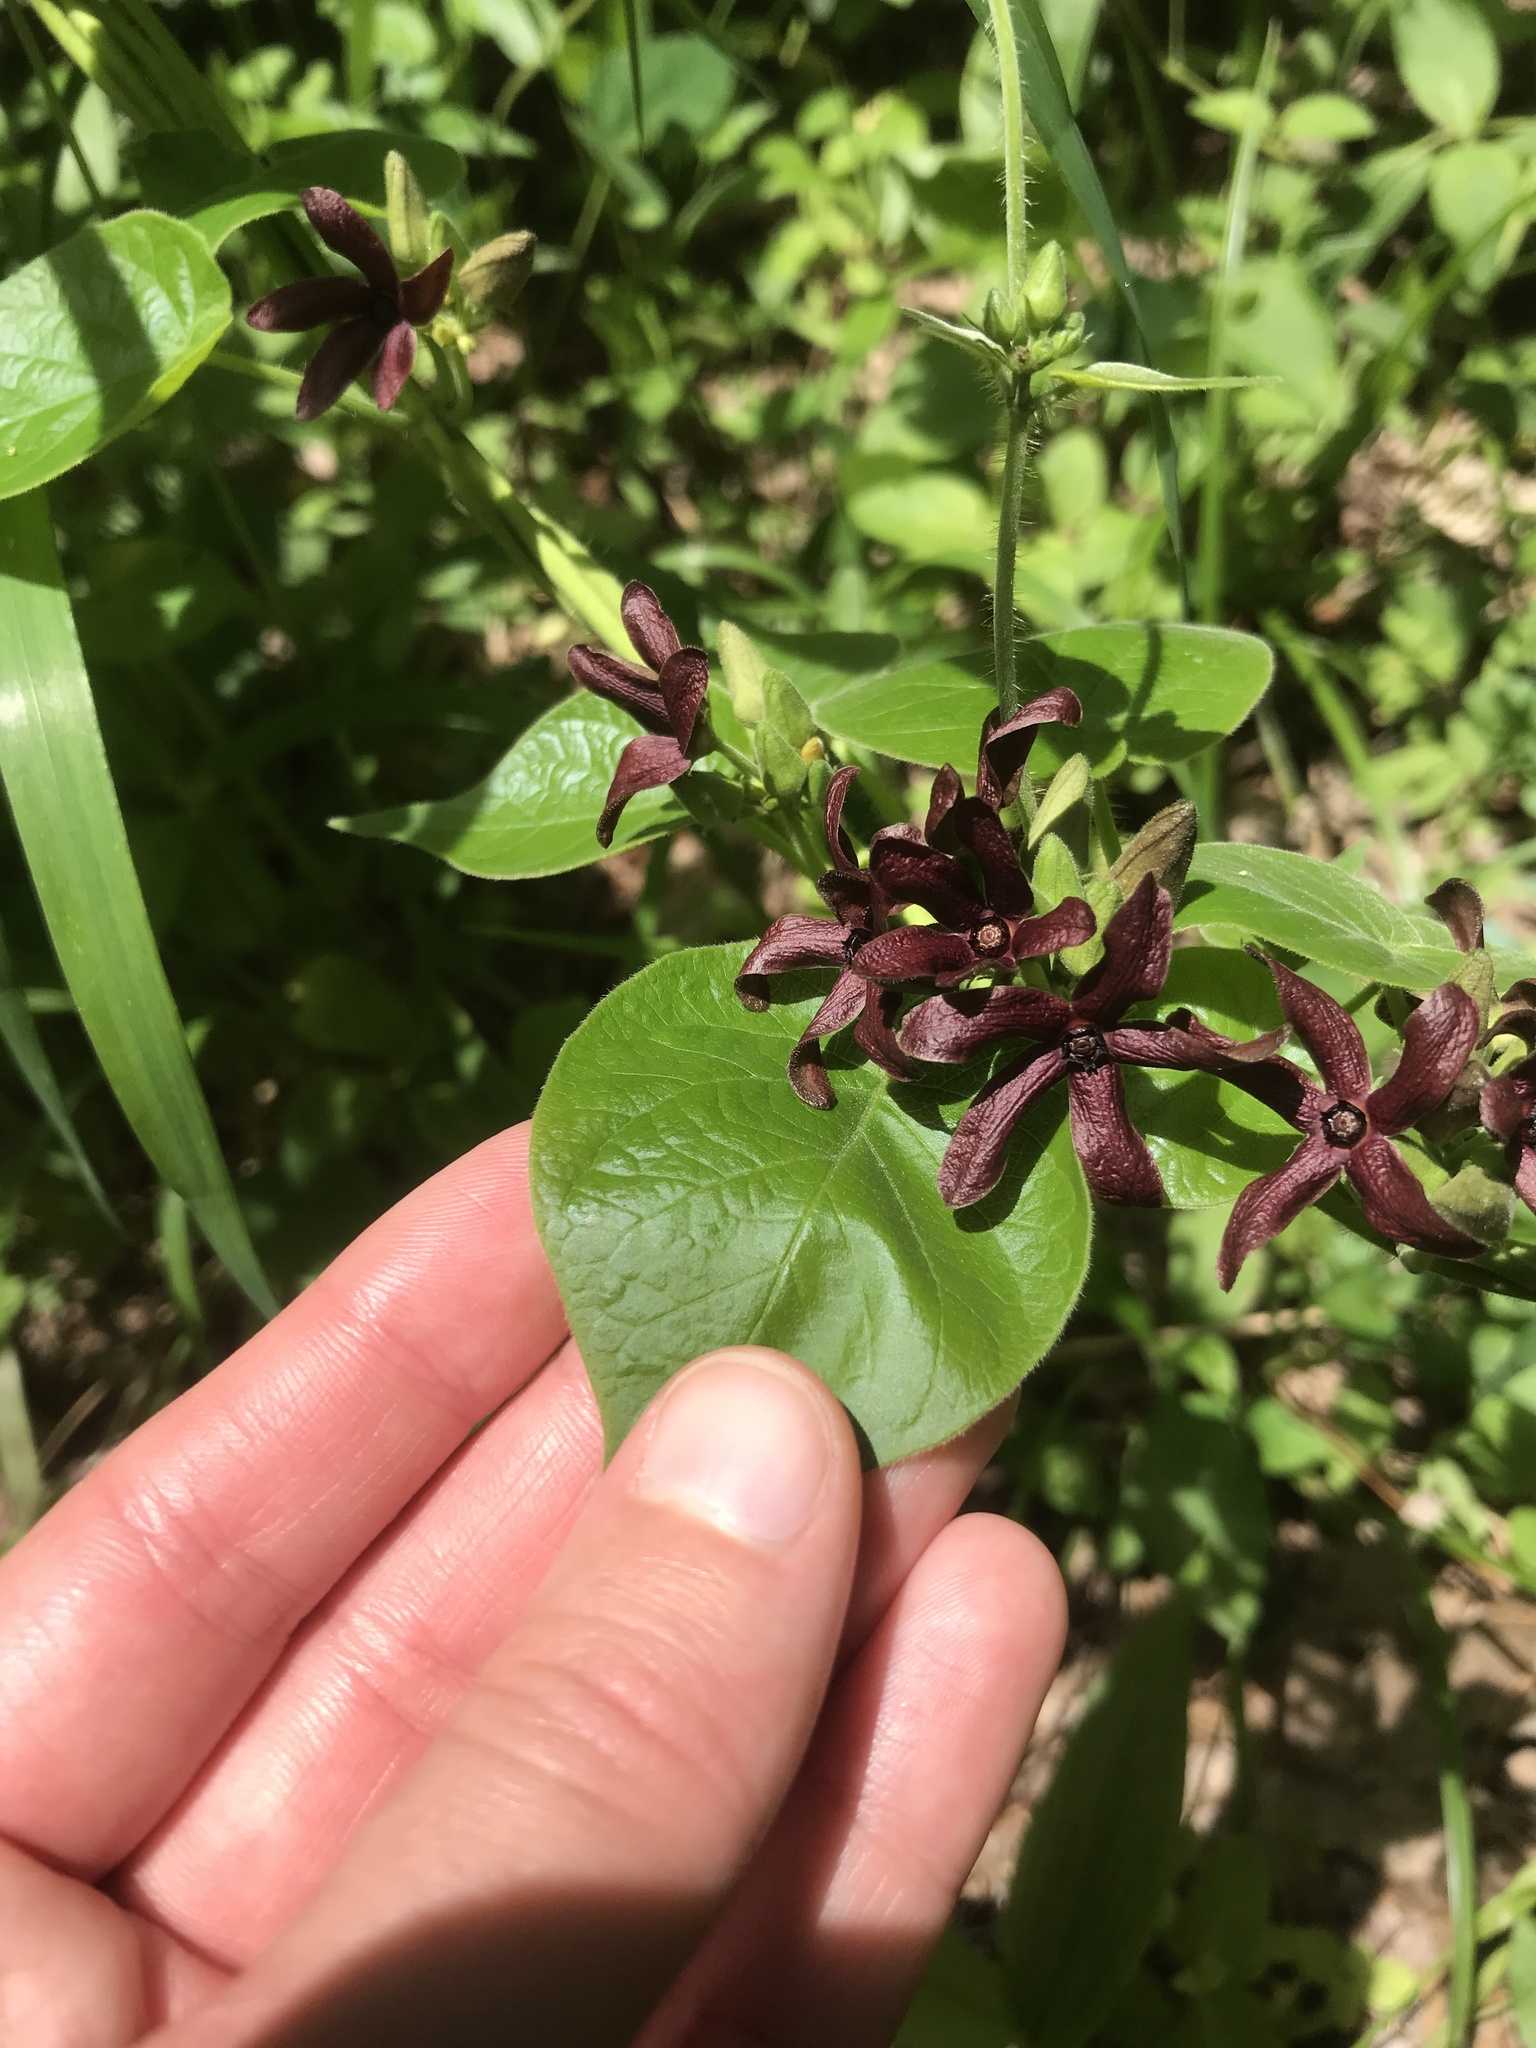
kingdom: Plantae
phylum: Tracheophyta
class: Magnoliopsida
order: Gentianales
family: Apocynaceae
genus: Matelea
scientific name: Matelea carolinensis
